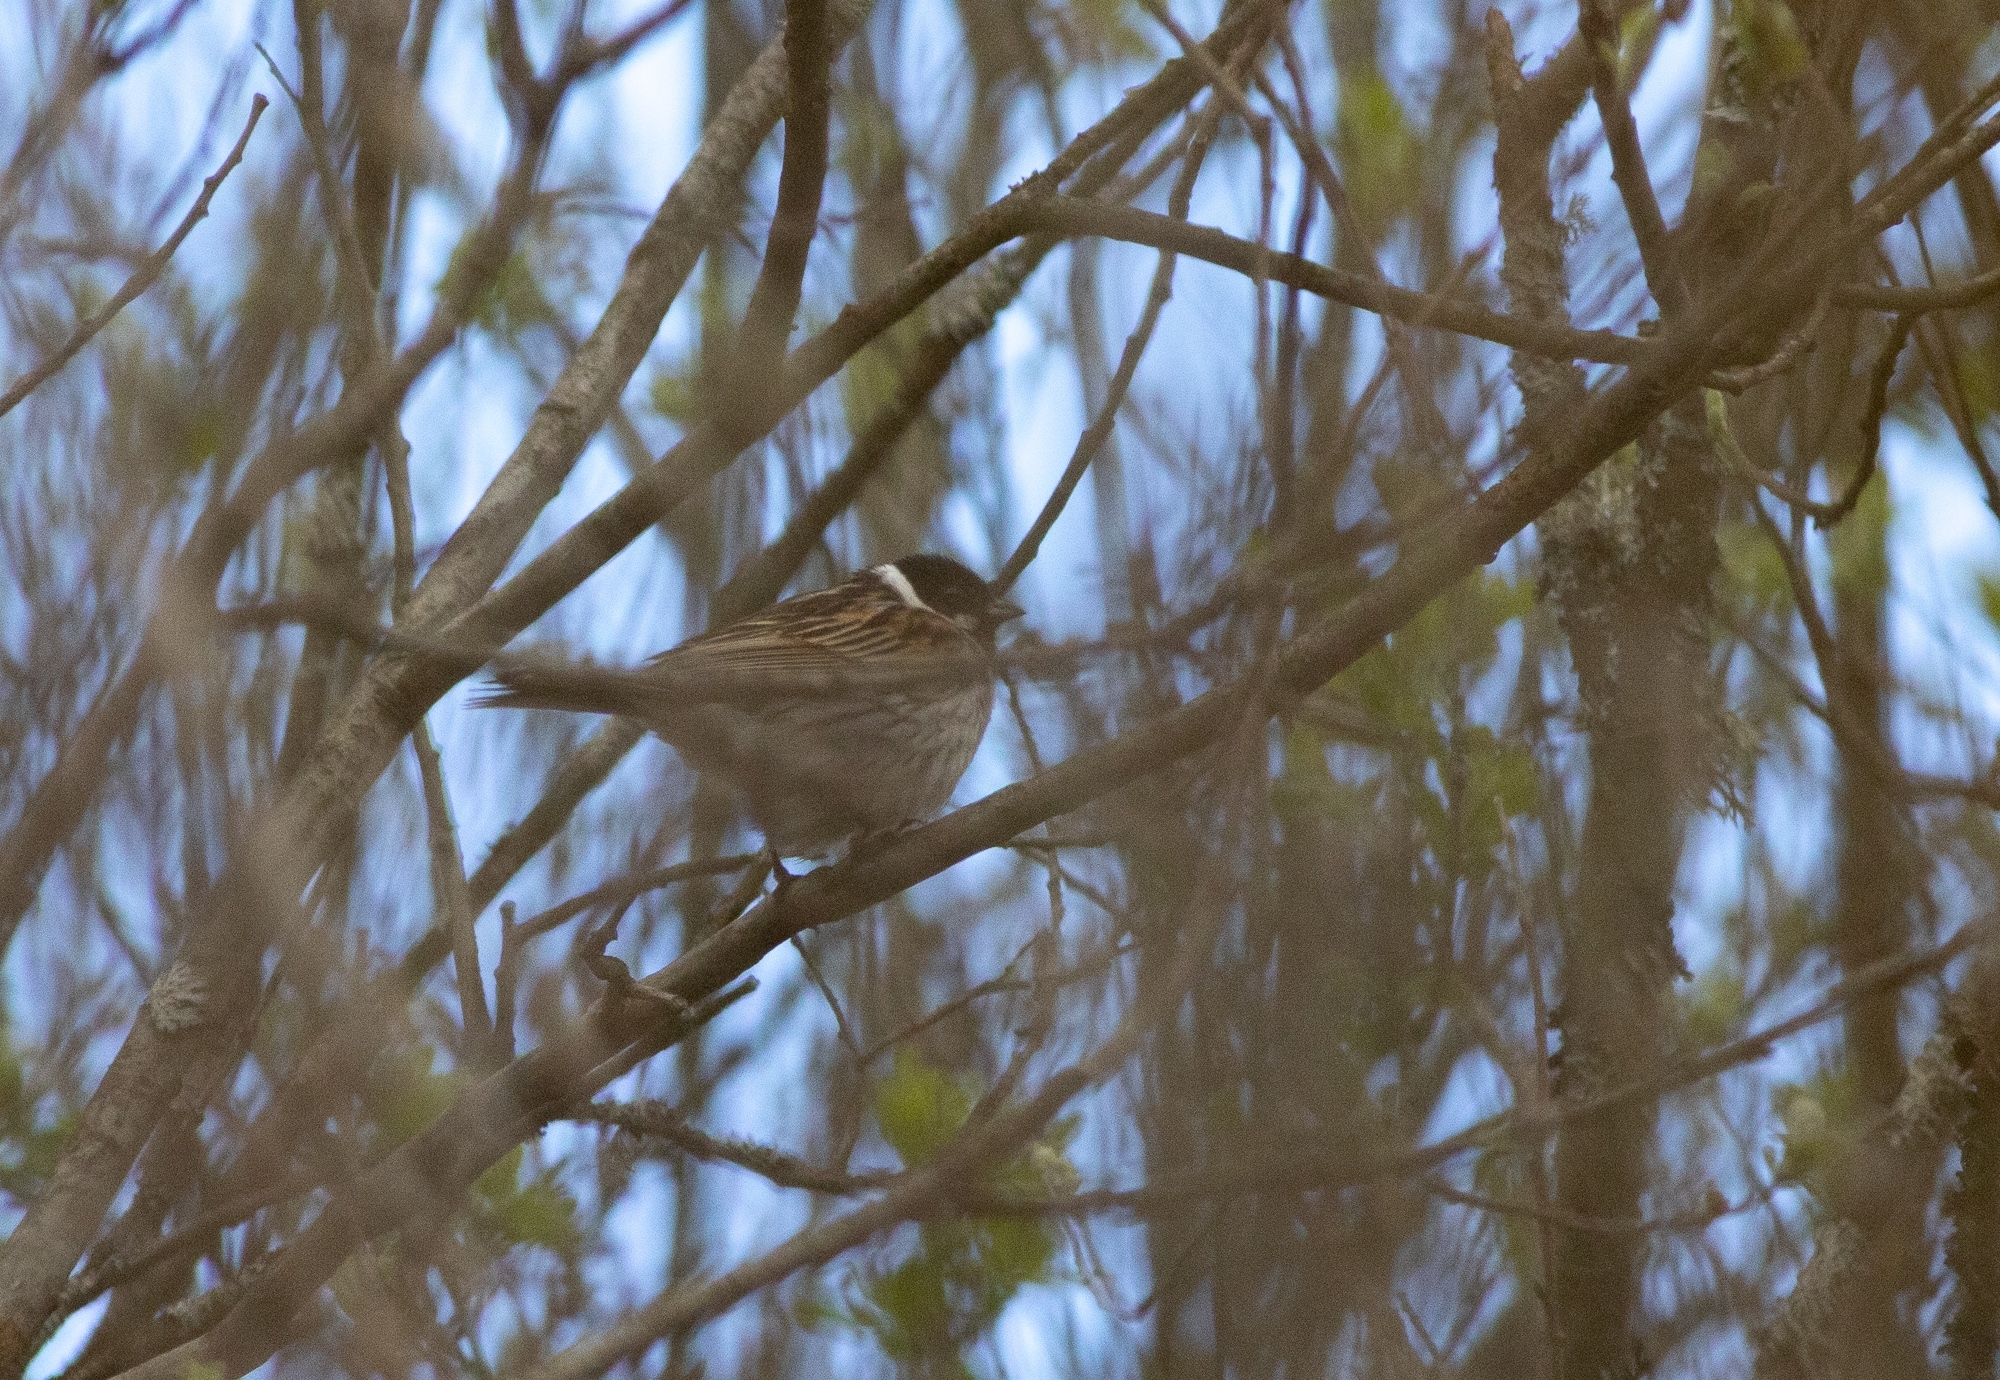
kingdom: Animalia
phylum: Chordata
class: Aves
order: Passeriformes
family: Emberizidae
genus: Emberiza
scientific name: Emberiza schoeniclus
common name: Reed bunting
